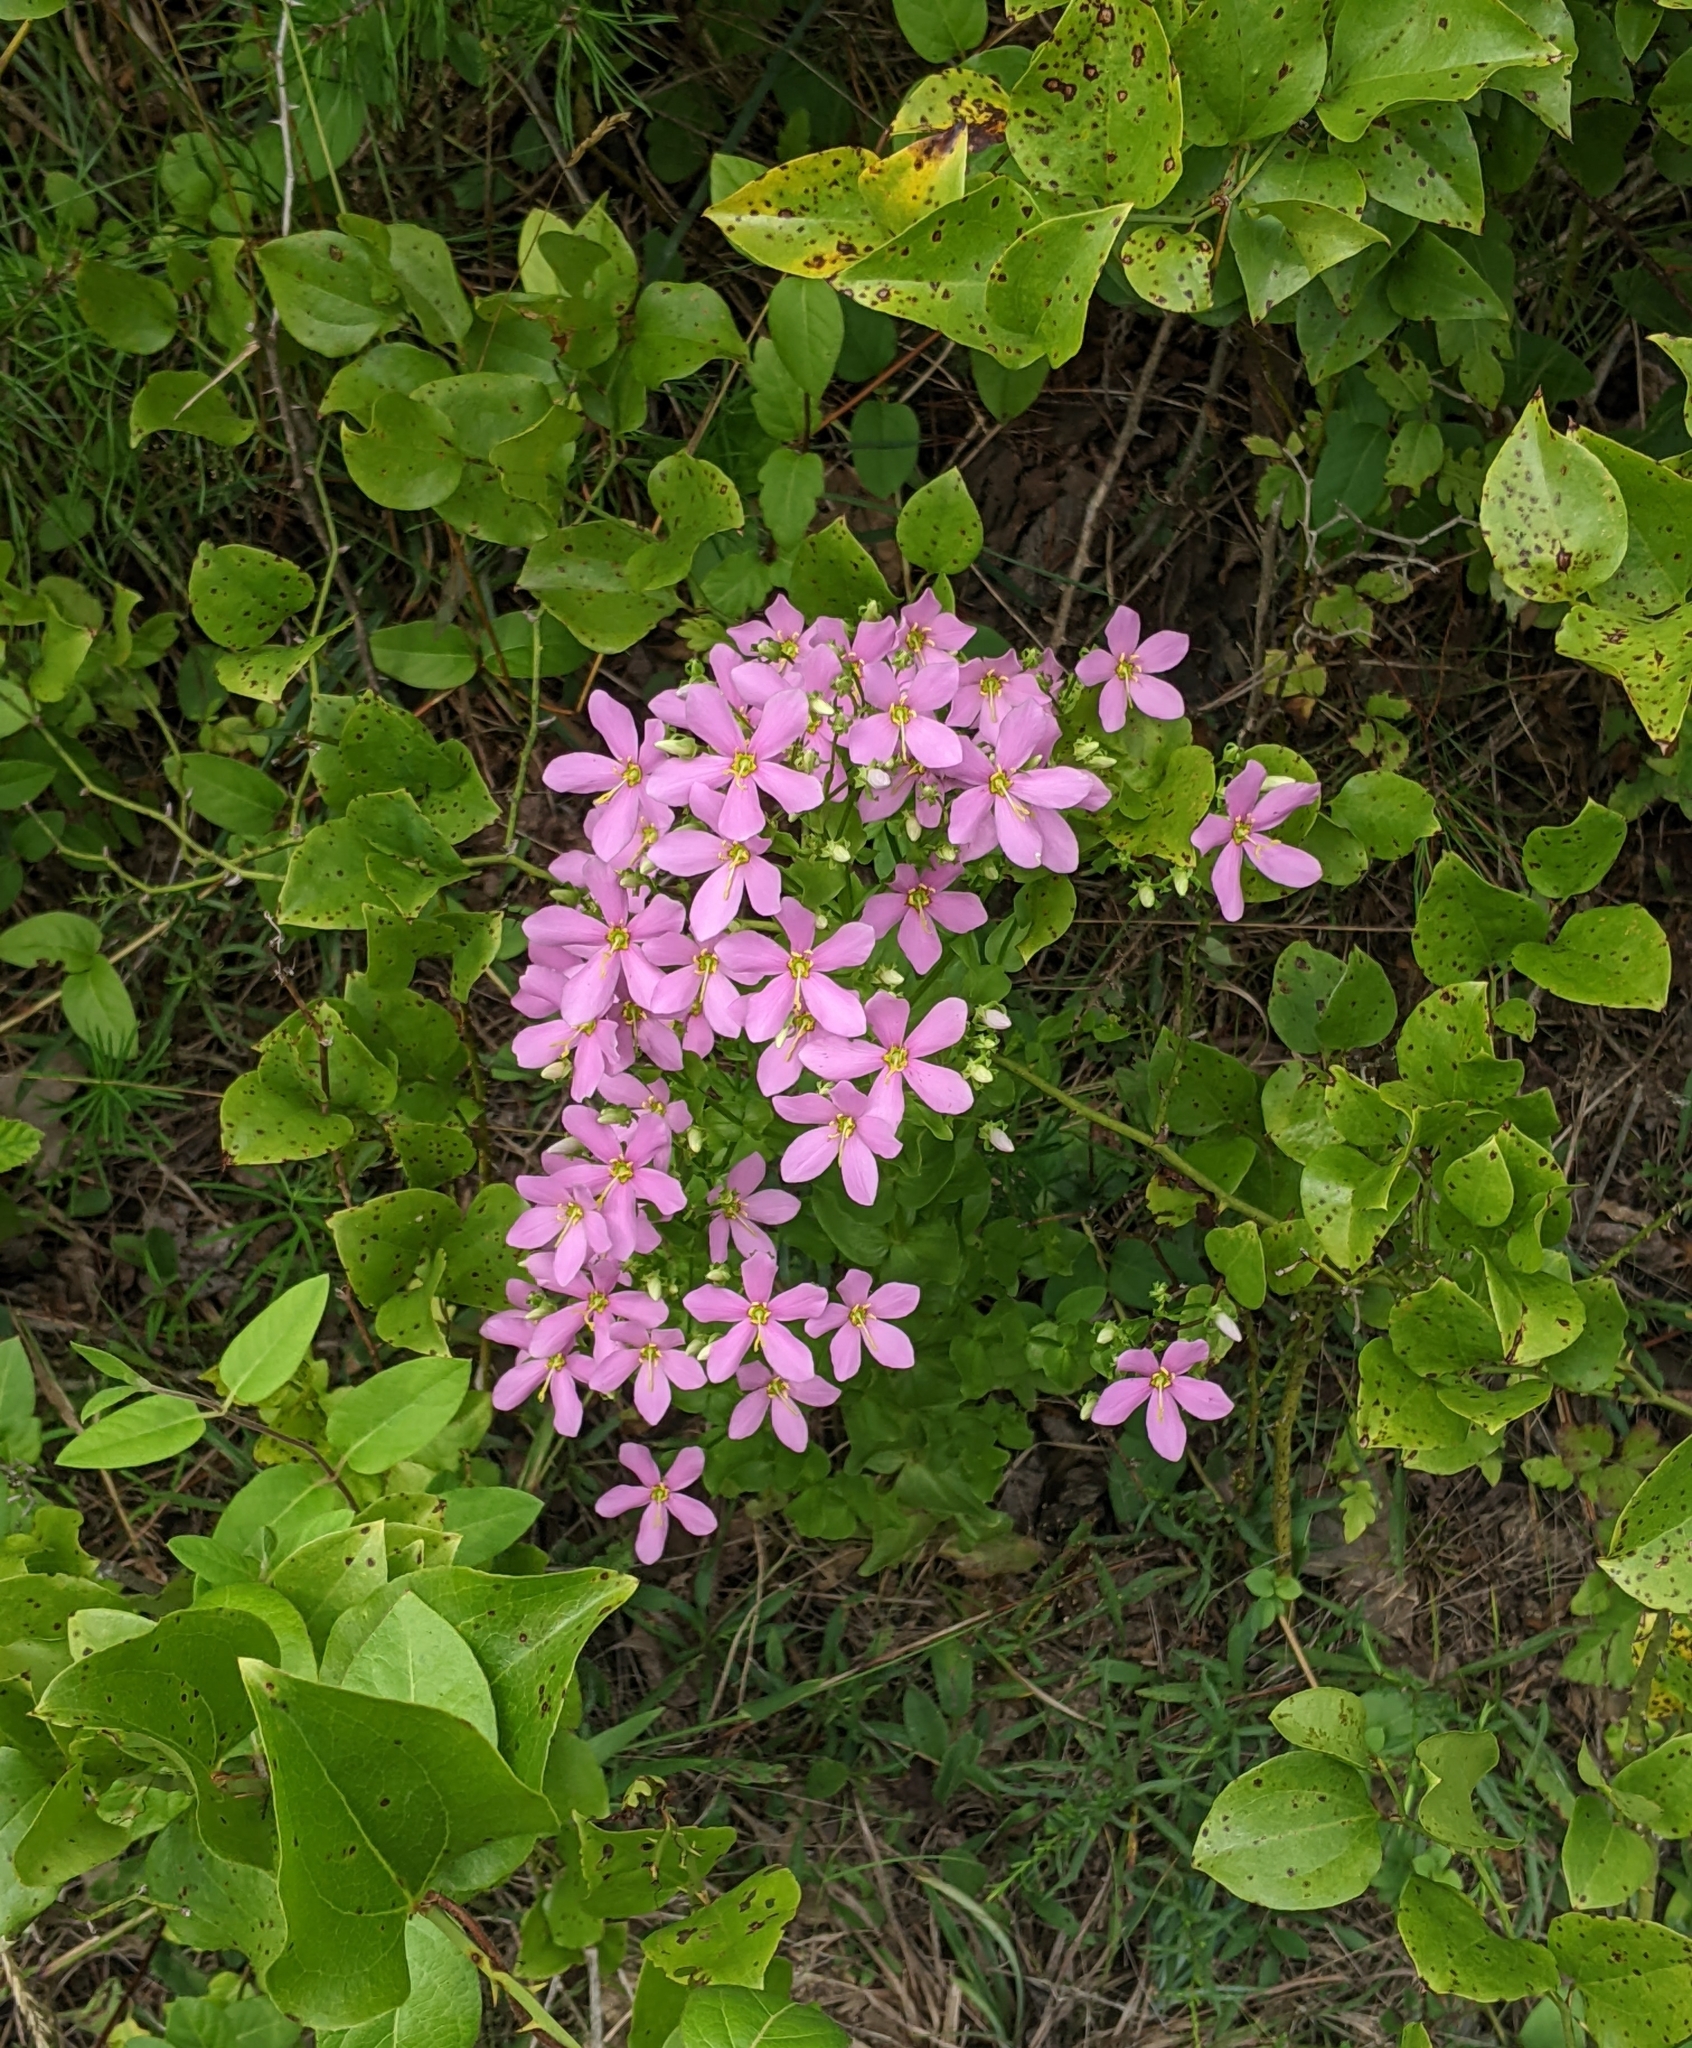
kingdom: Plantae
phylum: Tracheophyta
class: Magnoliopsida
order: Gentianales
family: Gentianaceae
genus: Sabatia
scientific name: Sabatia angularis
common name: Rose-pink
